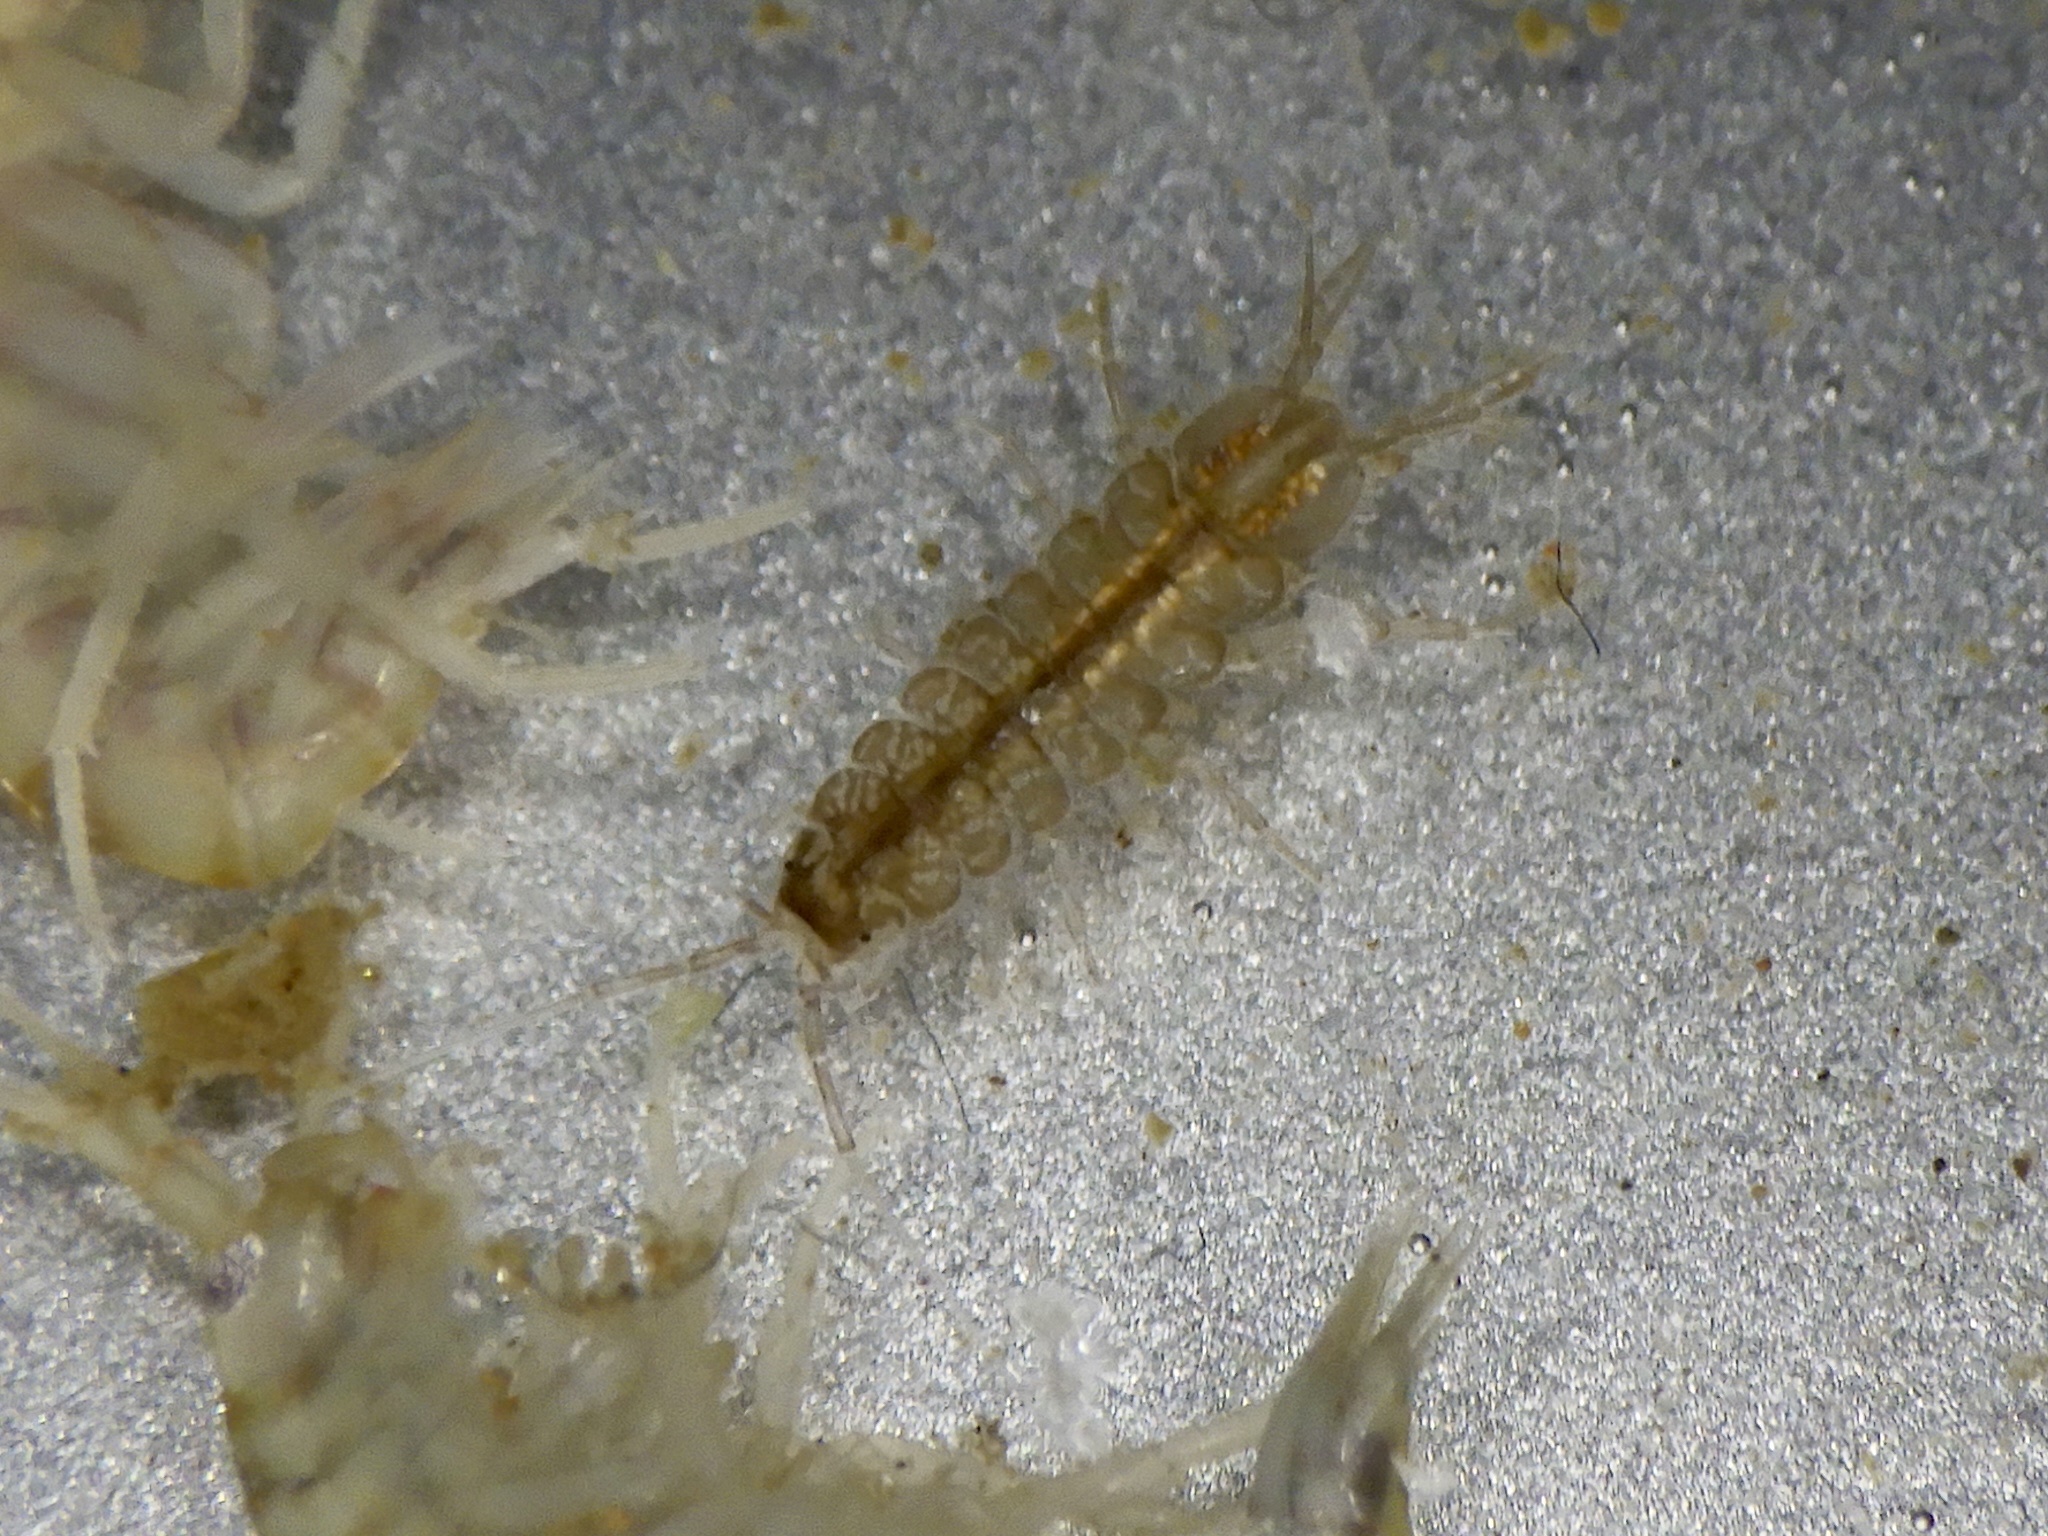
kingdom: Animalia
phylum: Arthropoda
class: Malacostraca
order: Isopoda
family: Asellidae
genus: Asellus
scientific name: Asellus hilgendorfii
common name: Isopod
